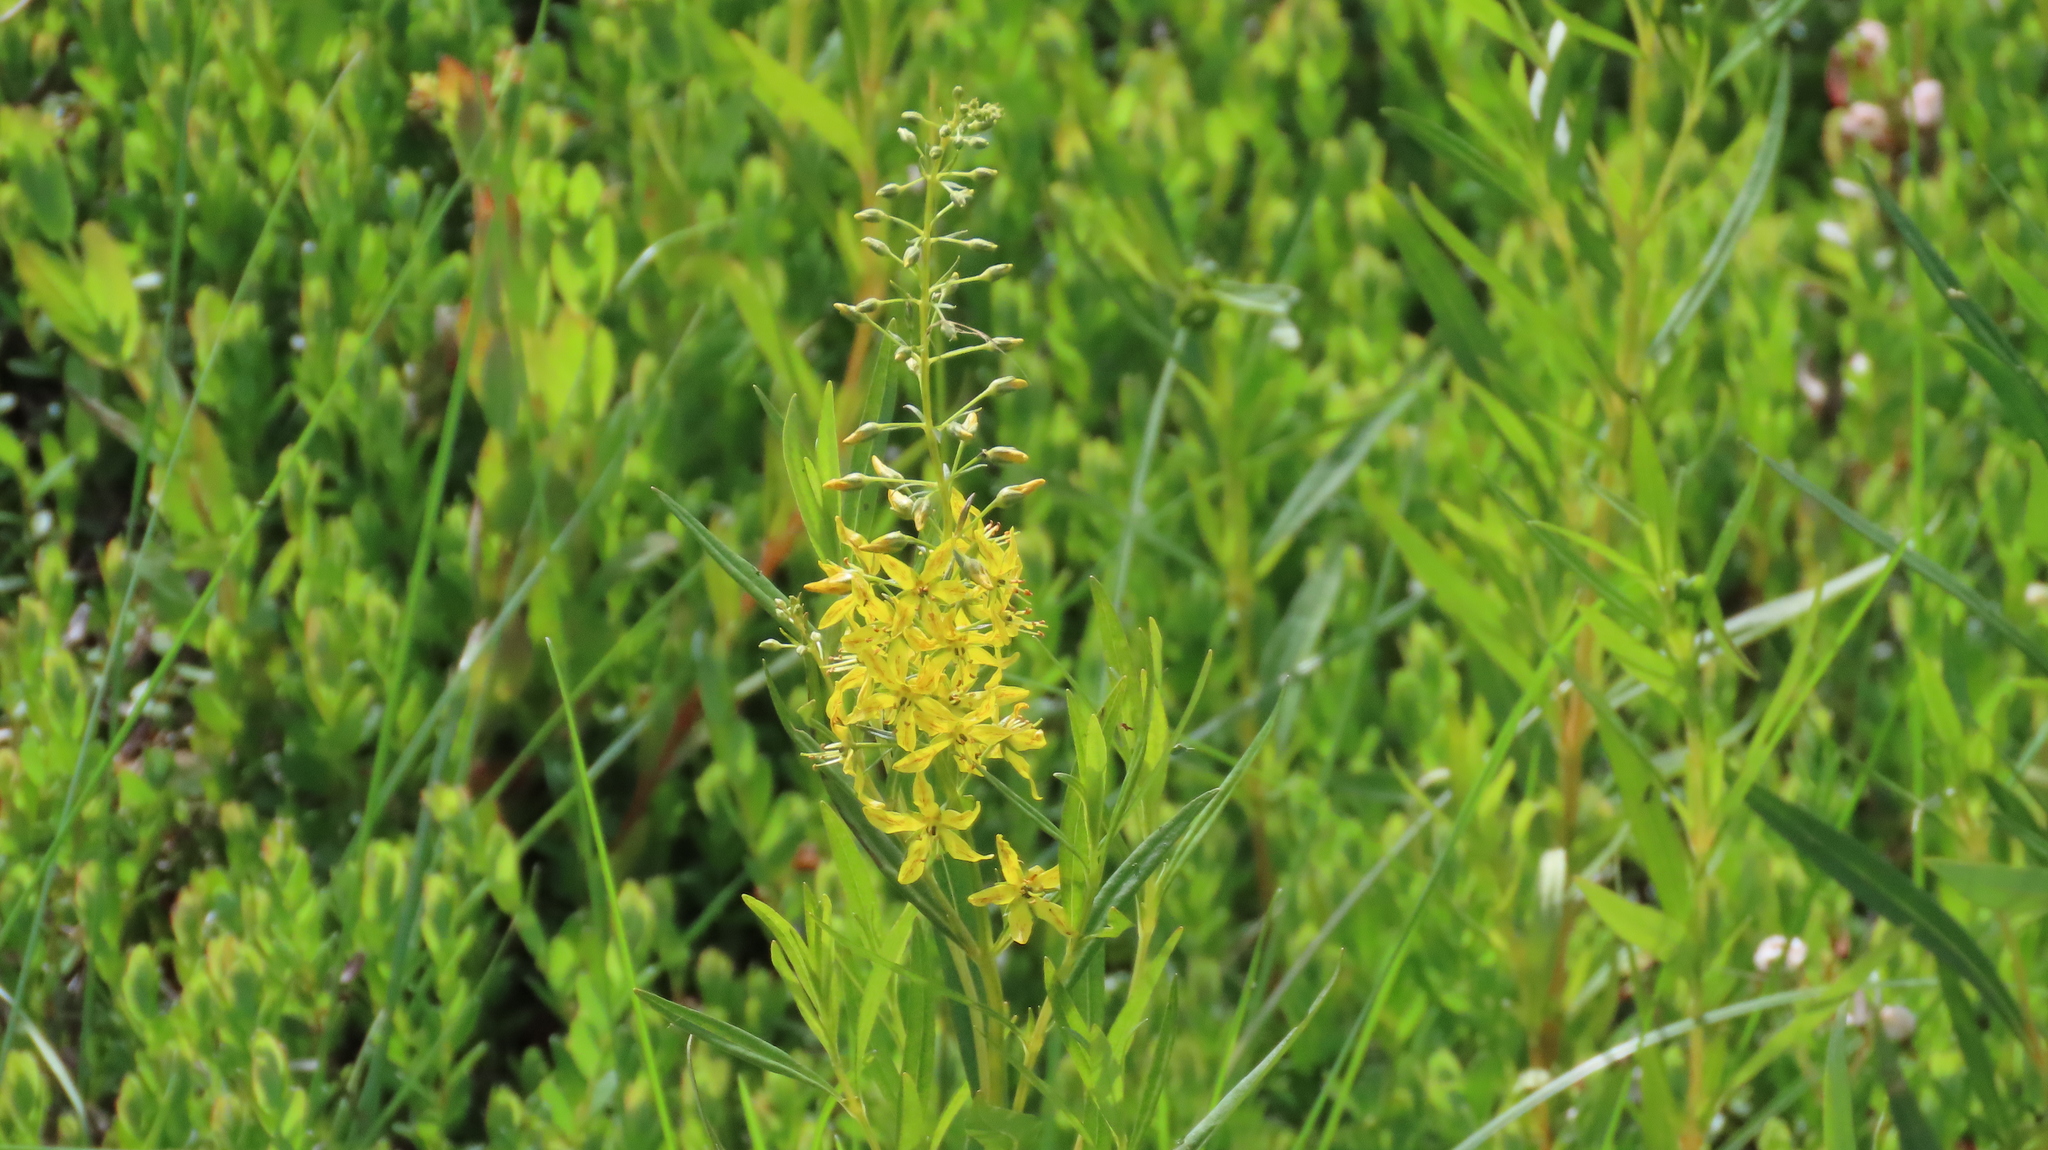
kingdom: Plantae
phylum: Tracheophyta
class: Magnoliopsida
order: Ericales
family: Primulaceae
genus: Lysimachia
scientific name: Lysimachia terrestris
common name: Lake loosestrife
